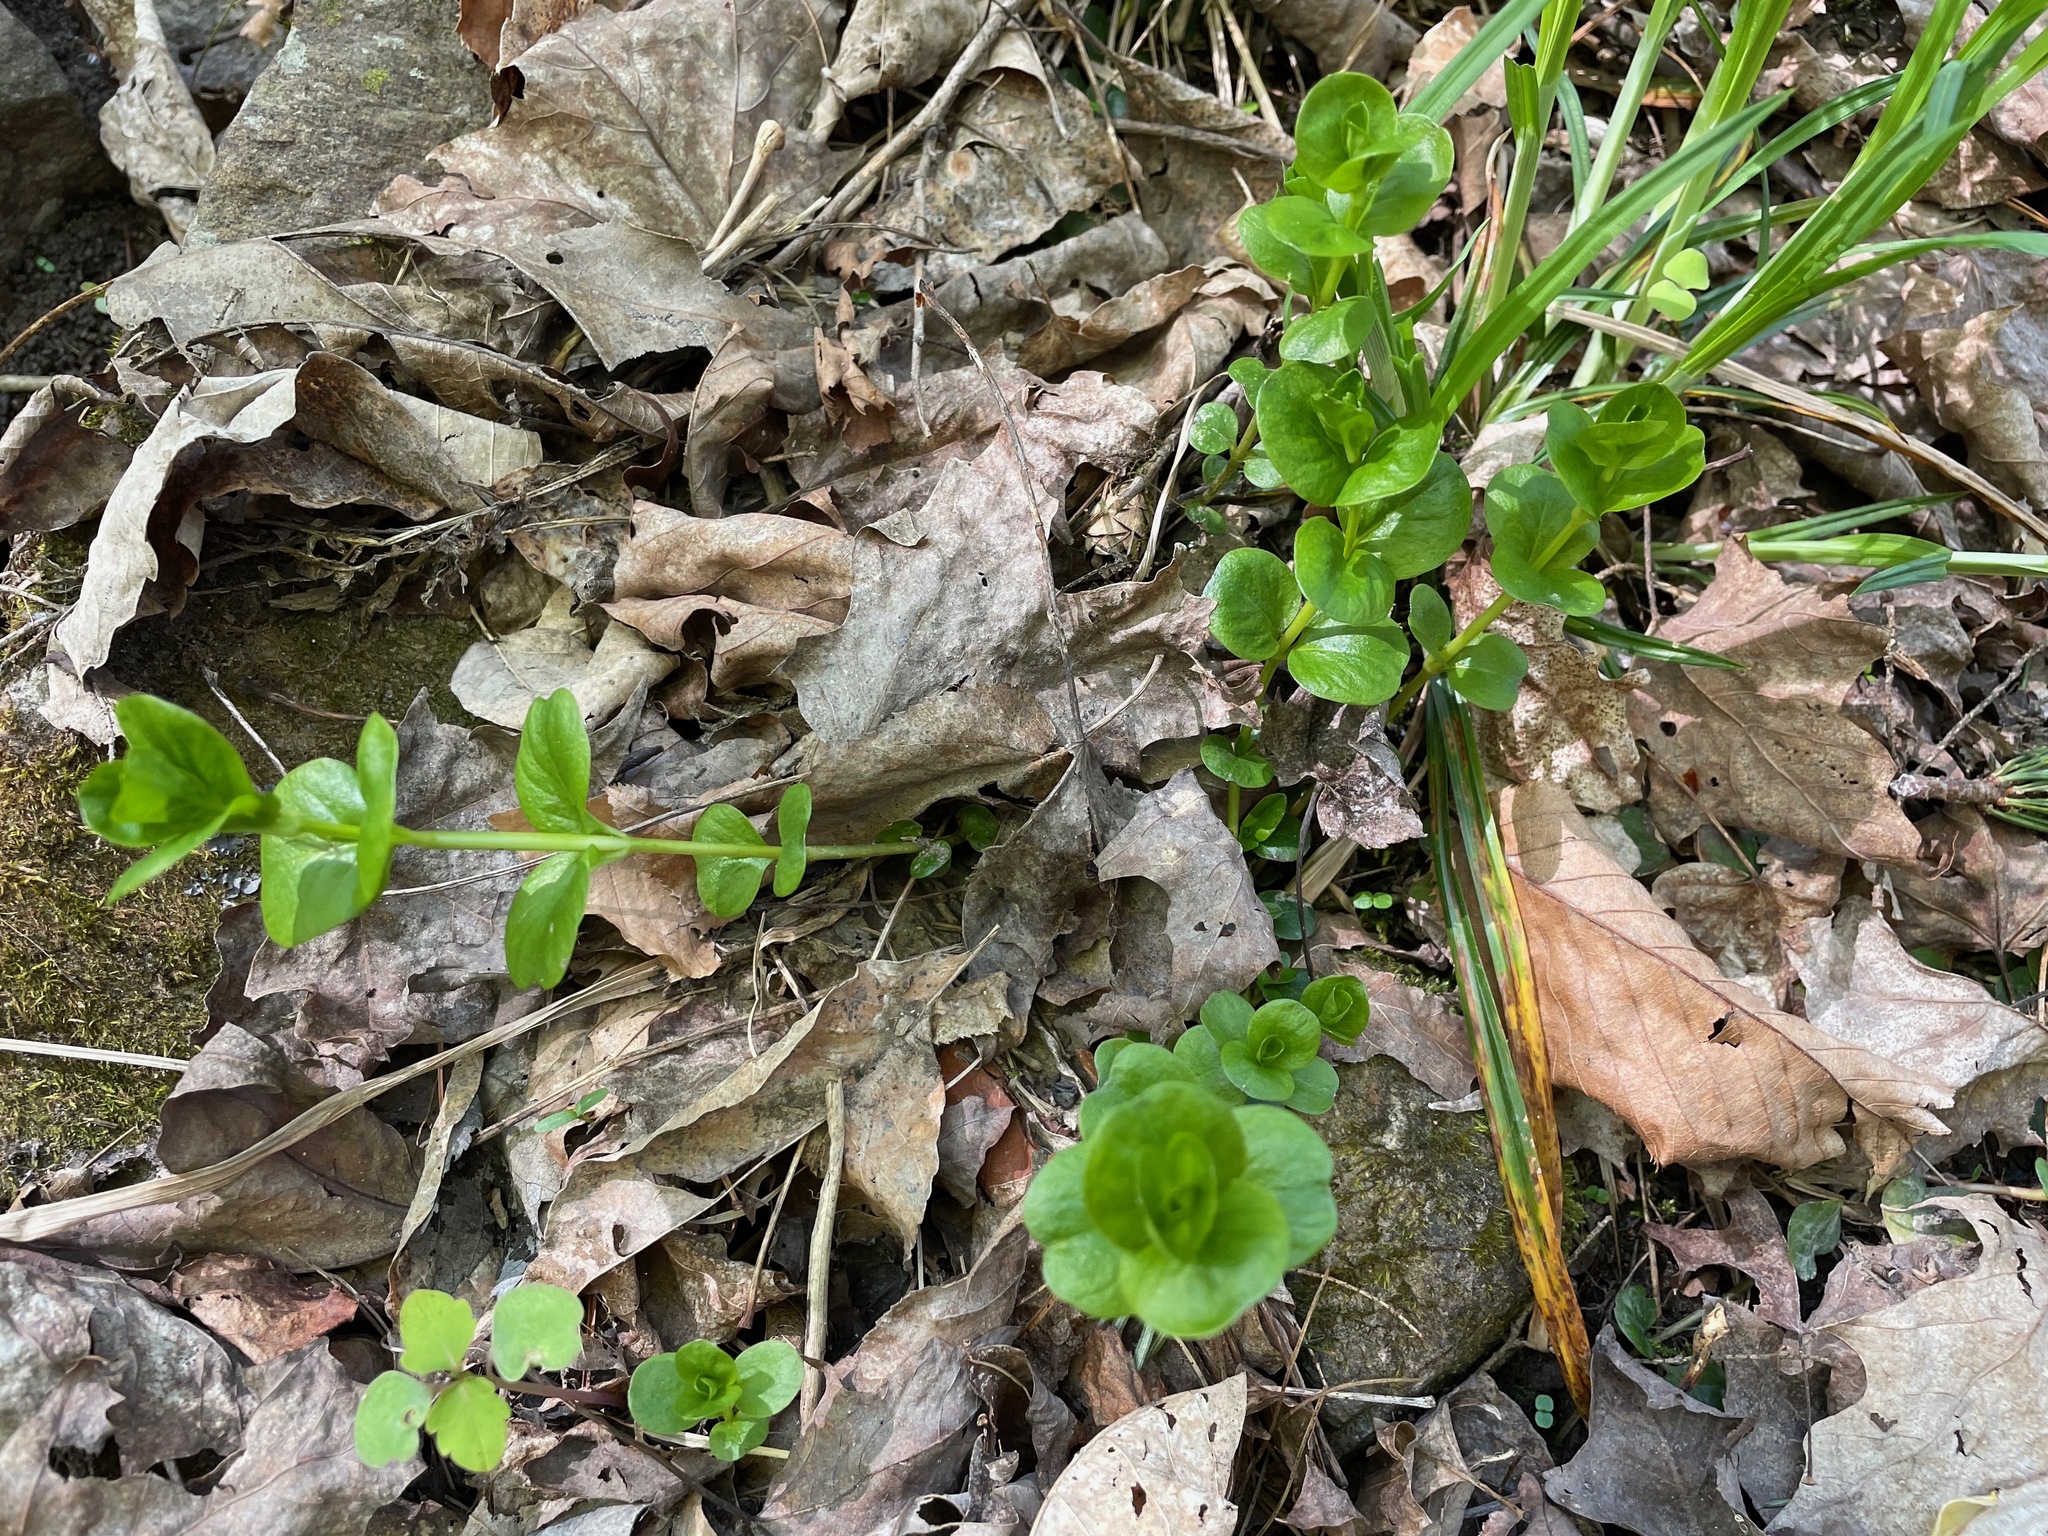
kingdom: Plantae
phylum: Tracheophyta
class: Magnoliopsida
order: Ericales
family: Primulaceae
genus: Lysimachia
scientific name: Lysimachia nummularia
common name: Moneywort
